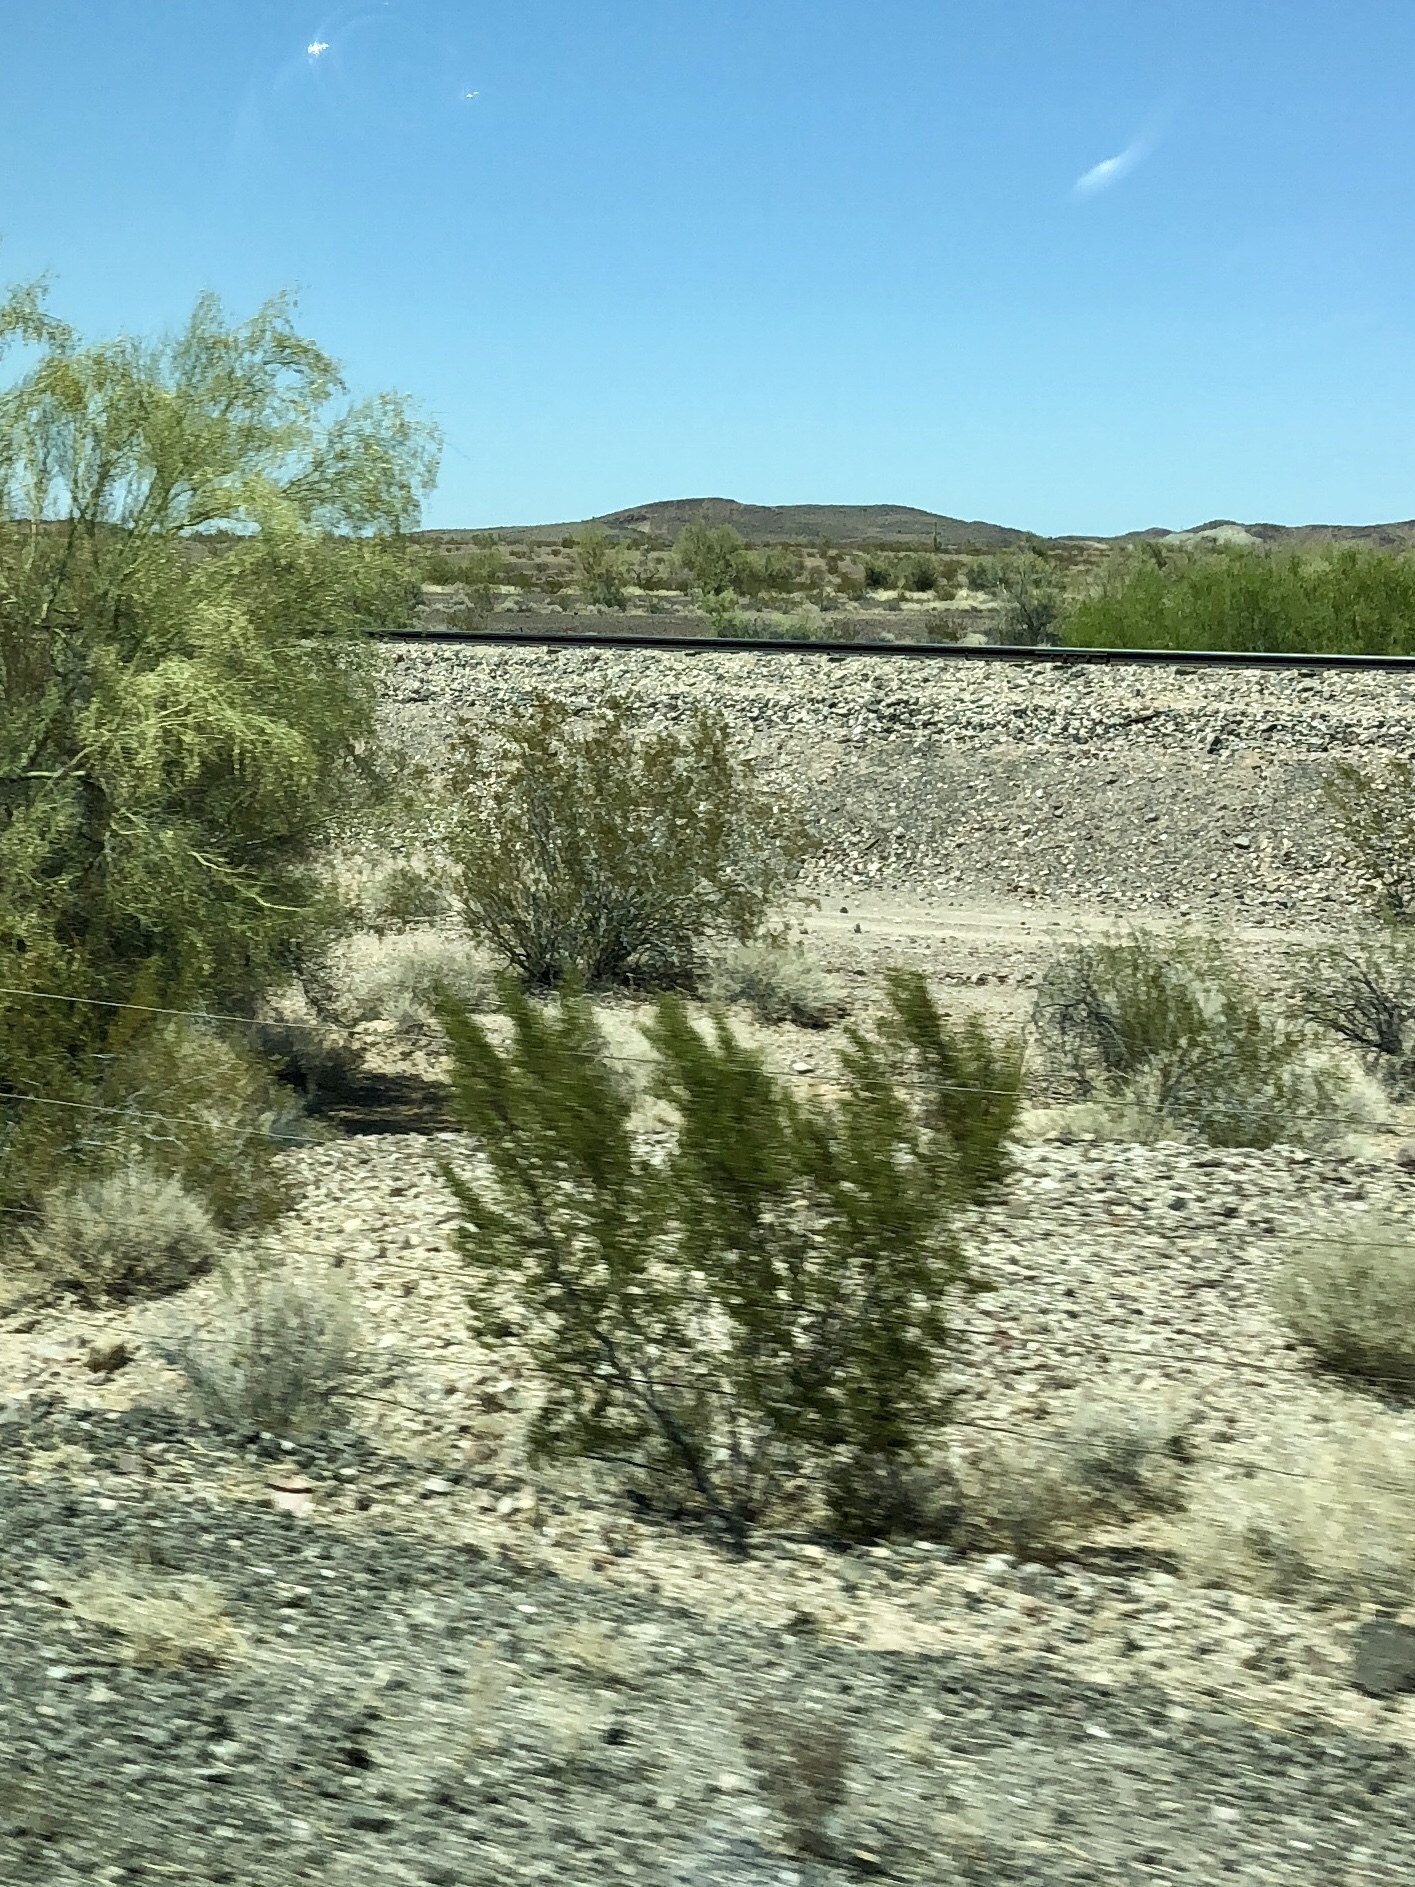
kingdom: Plantae
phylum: Tracheophyta
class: Magnoliopsida
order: Zygophyllales
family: Zygophyllaceae
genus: Larrea
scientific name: Larrea tridentata
